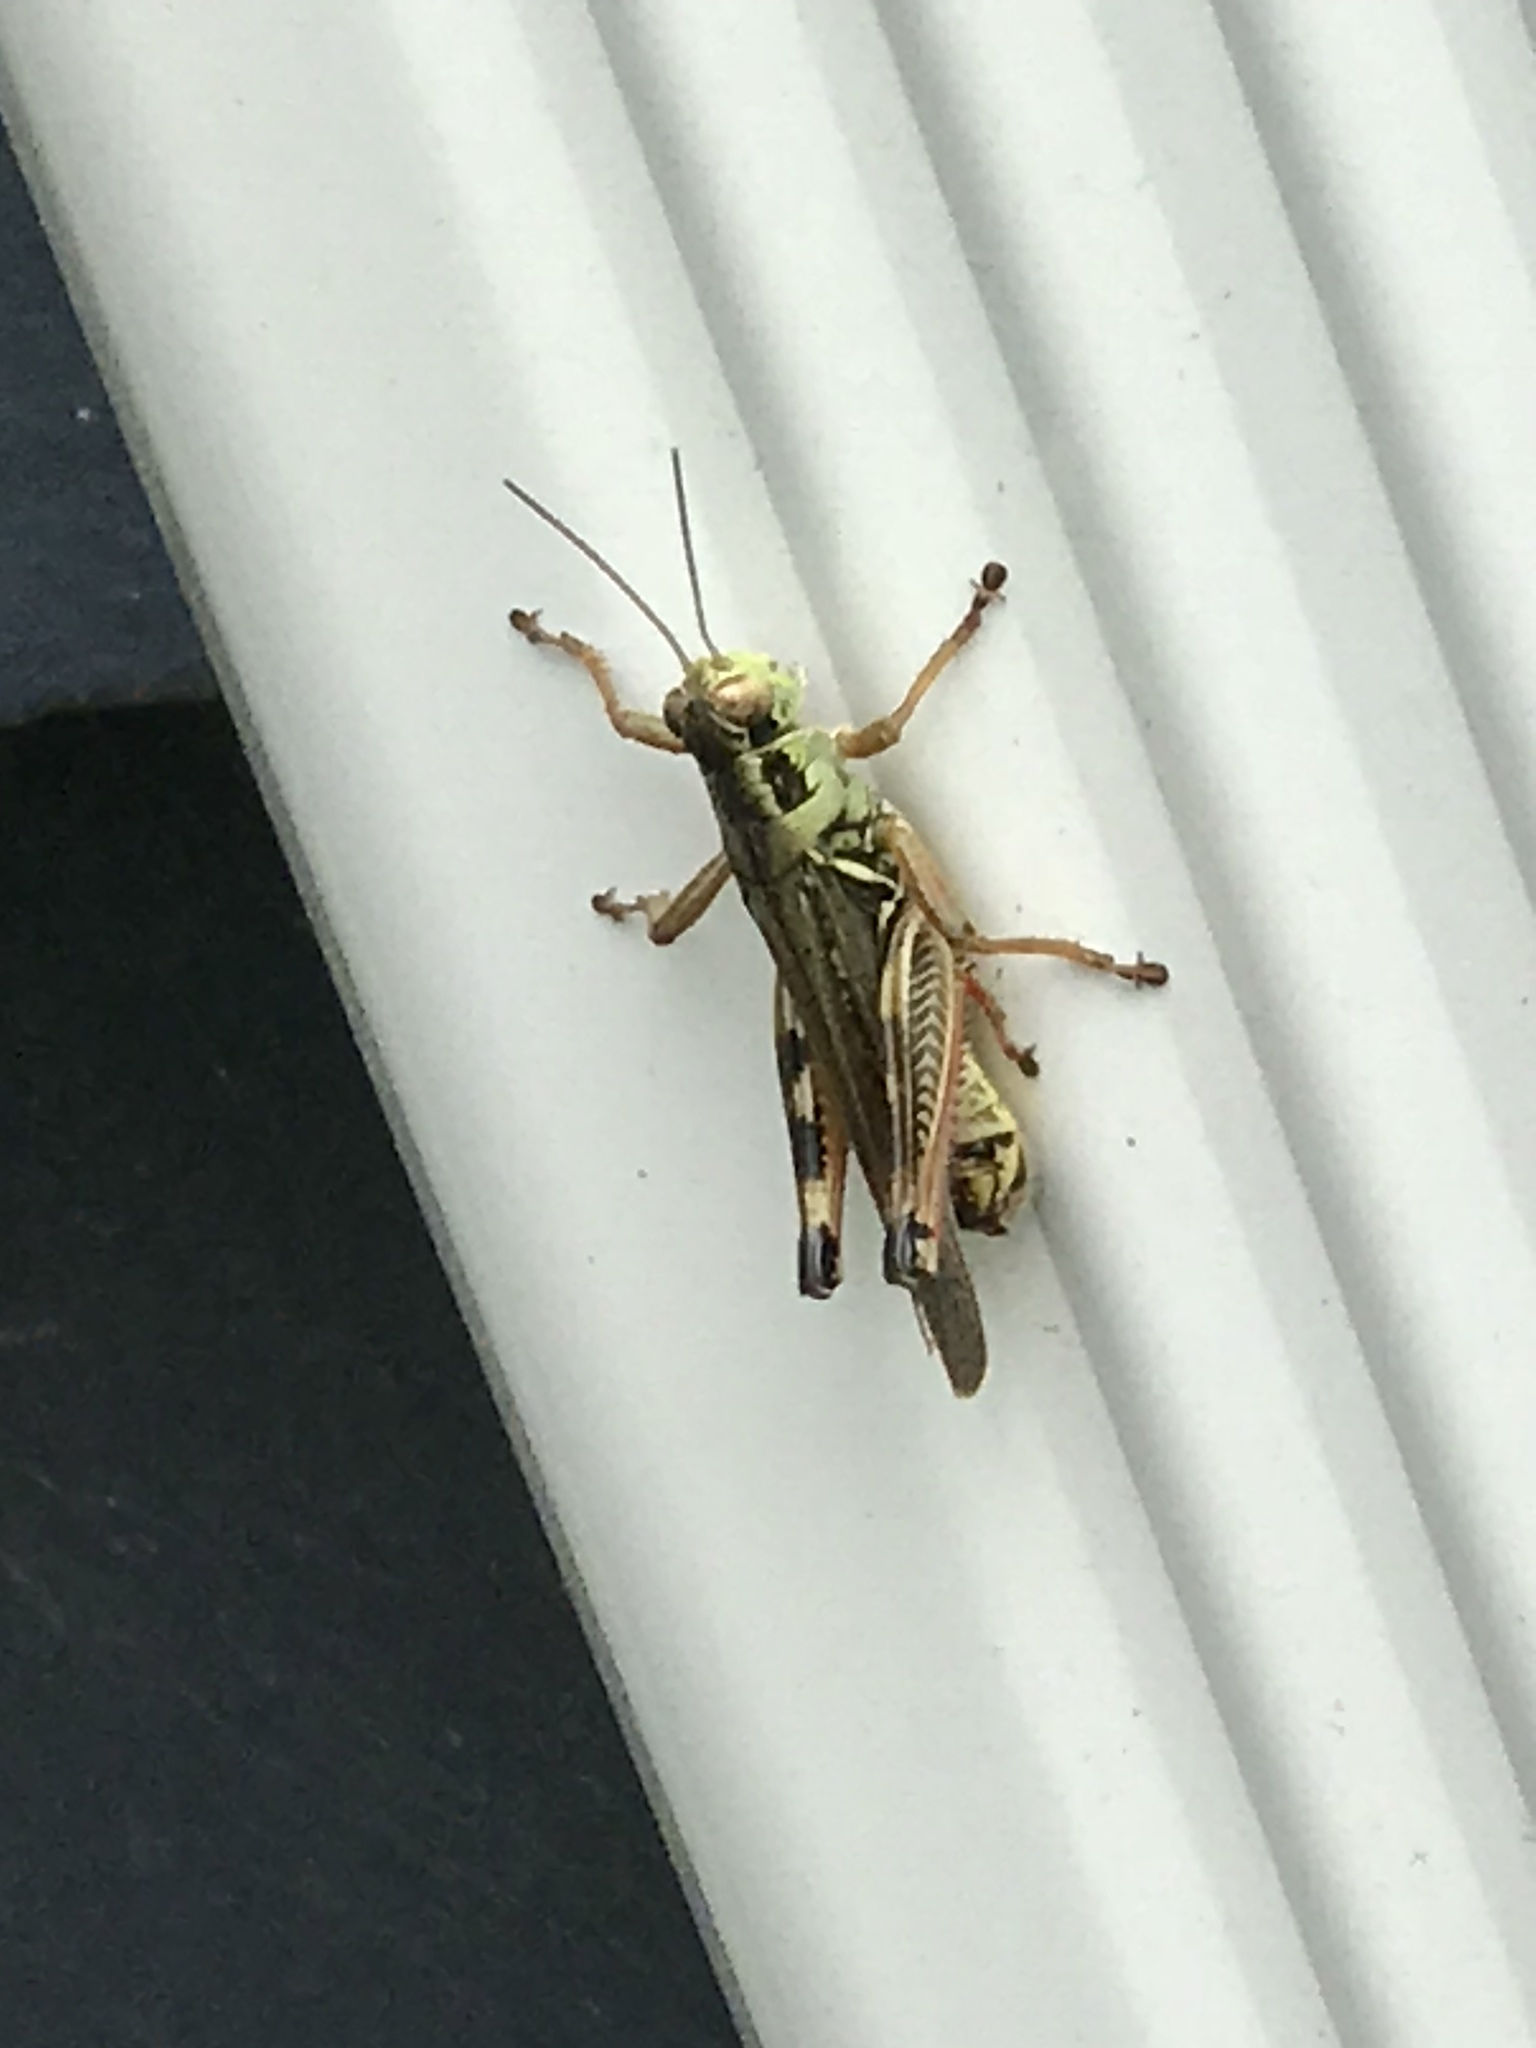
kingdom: Animalia
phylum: Arthropoda
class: Insecta
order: Orthoptera
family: Acrididae
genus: Melanoplus
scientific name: Melanoplus femurrubrum
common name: Red-legged grasshopper
